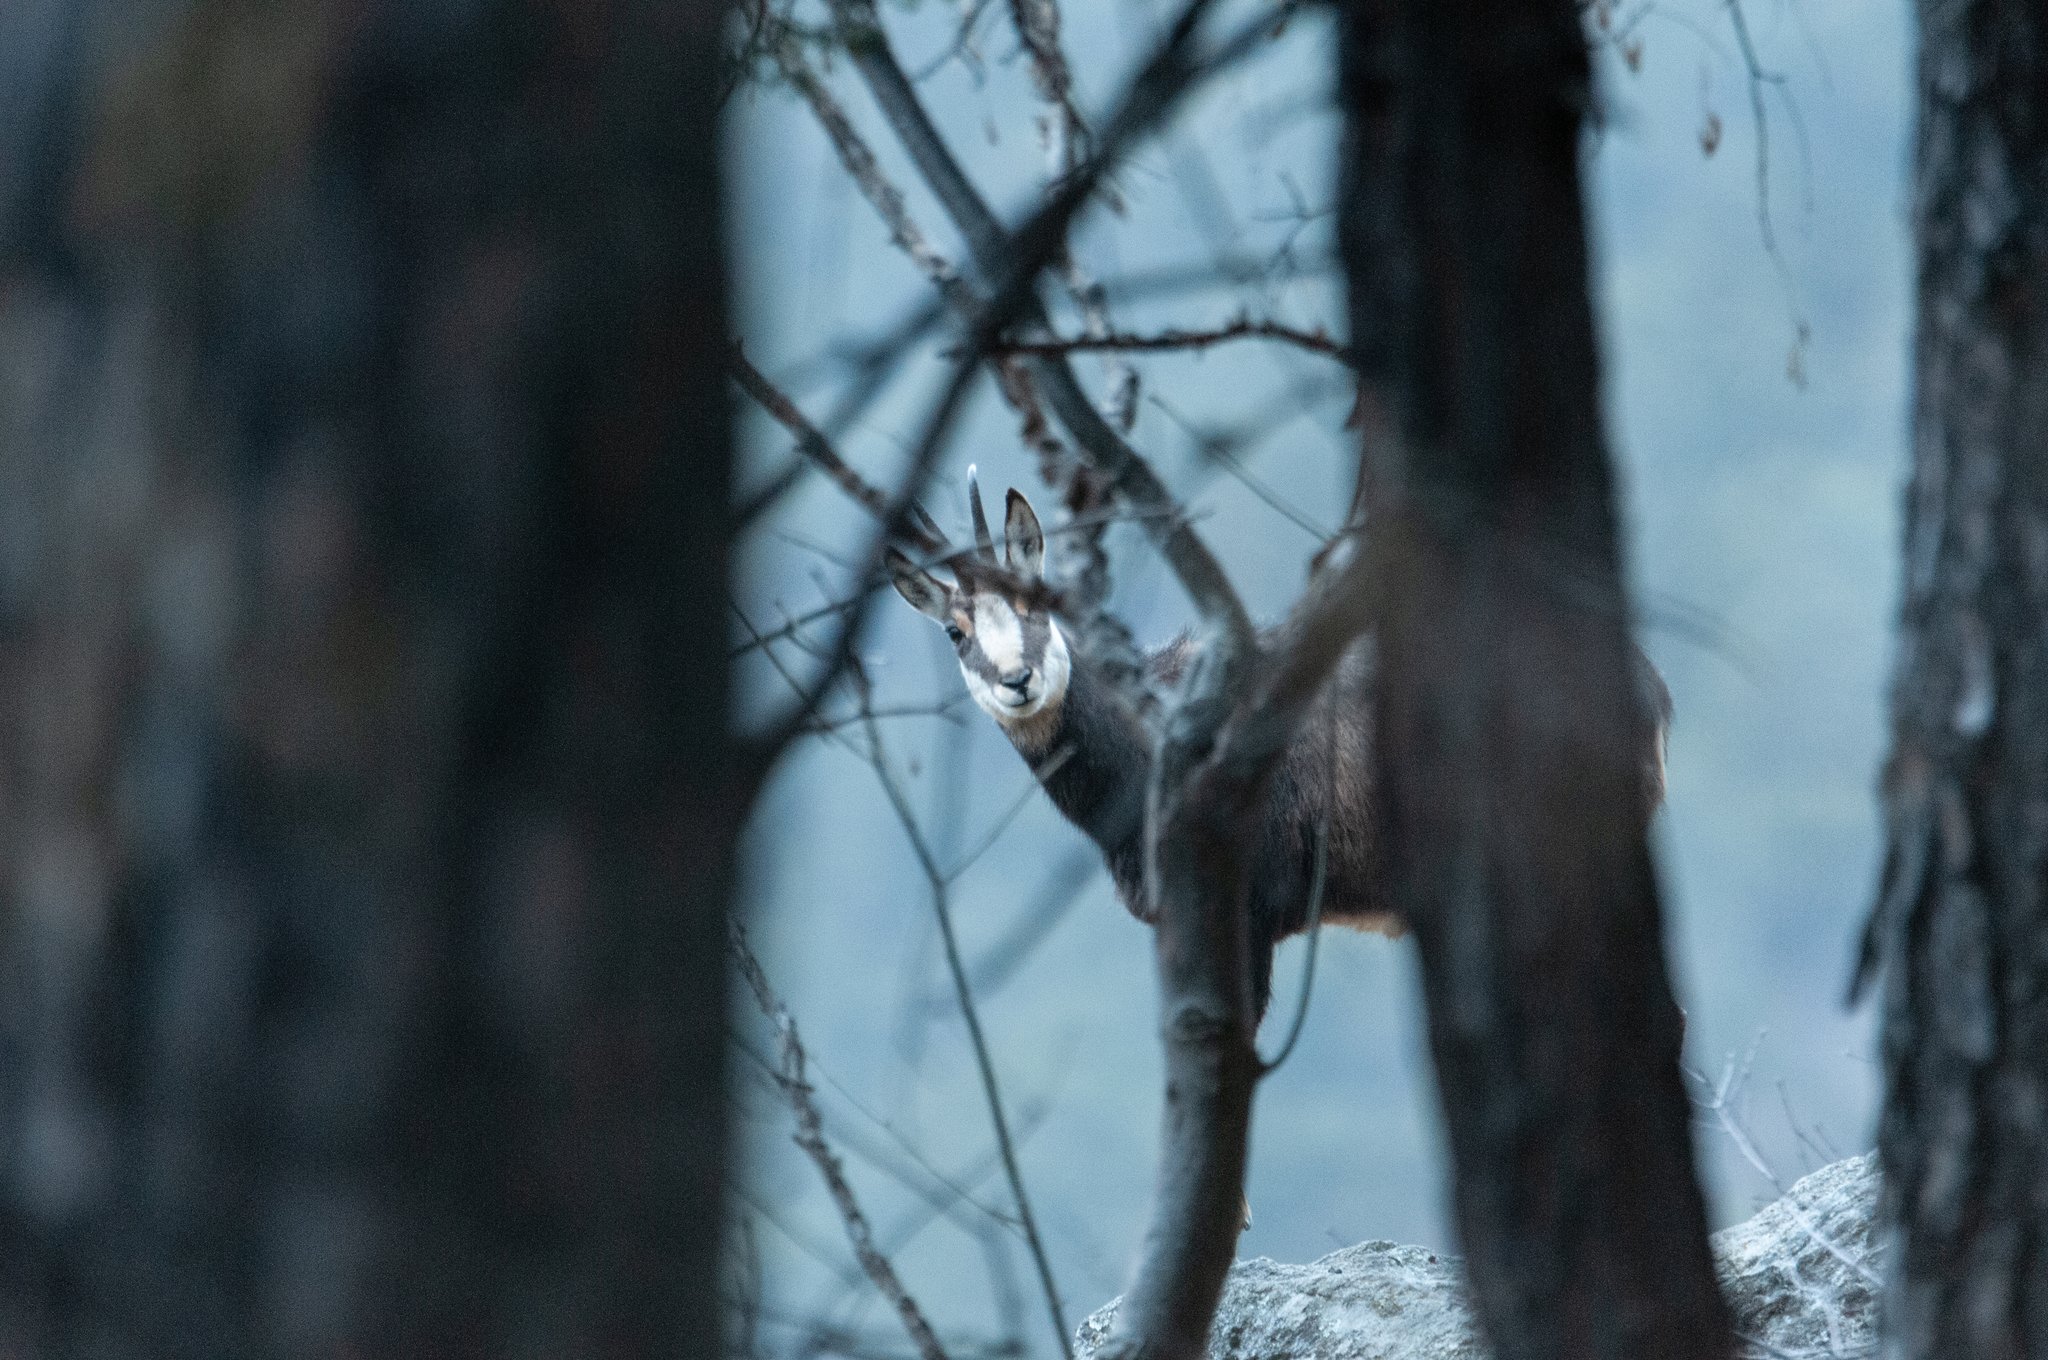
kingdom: Animalia
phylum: Chordata
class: Mammalia
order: Artiodactyla
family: Bovidae
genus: Rupicapra
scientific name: Rupicapra rupicapra
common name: Chamois
